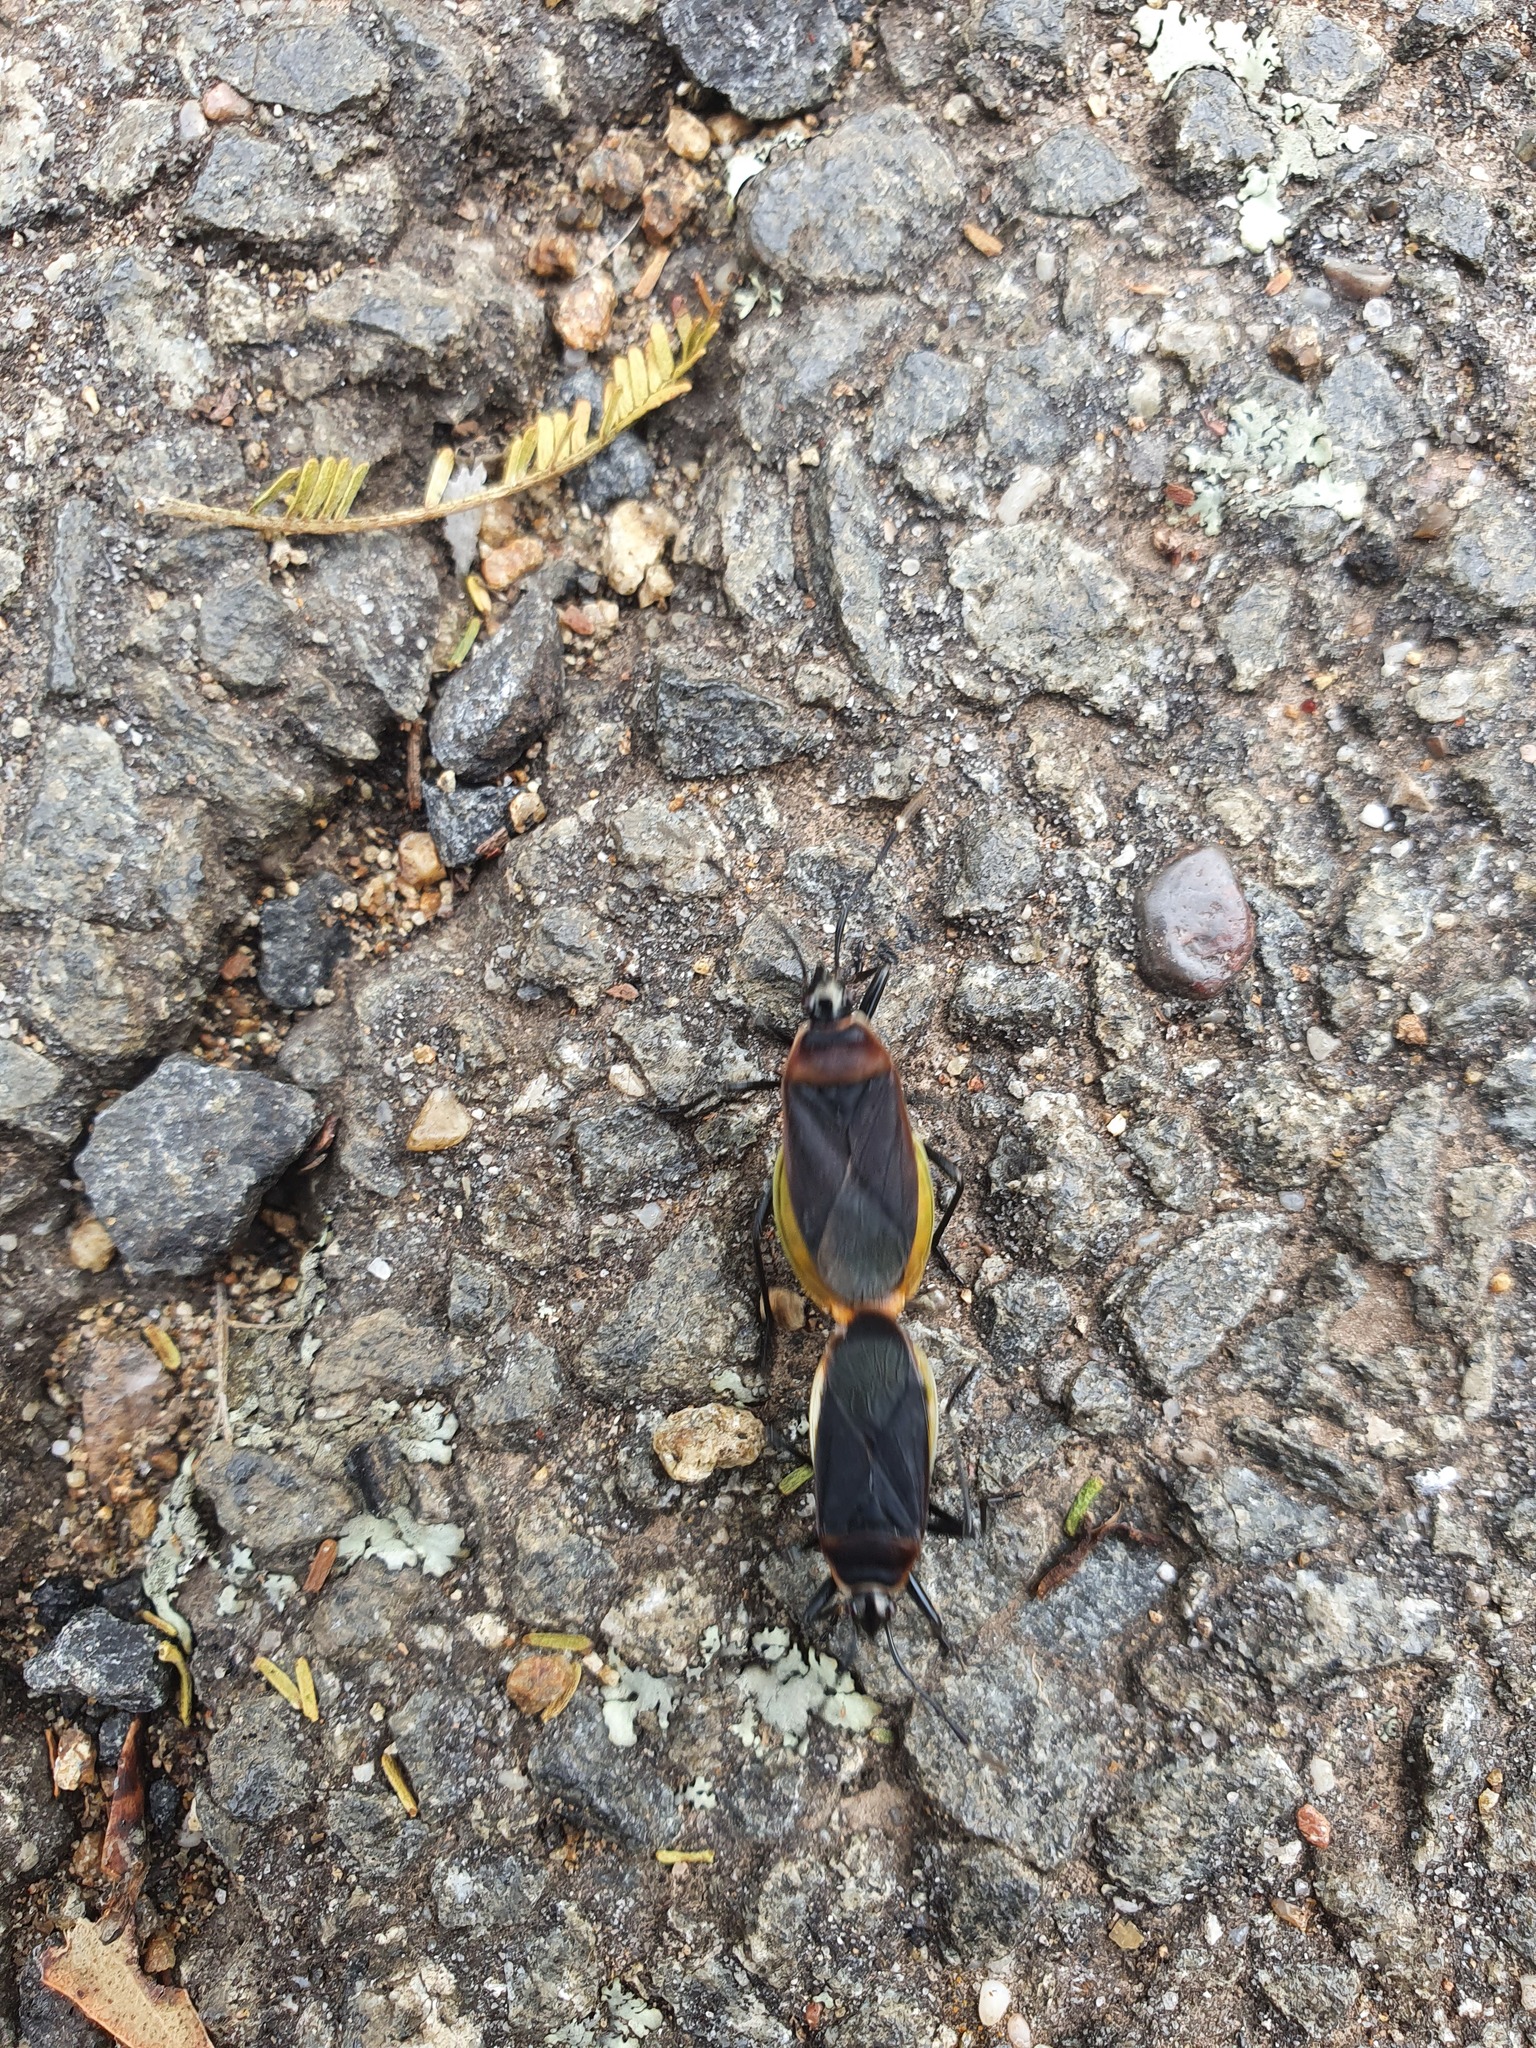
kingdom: Animalia
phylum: Arthropoda
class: Insecta
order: Hemiptera
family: Pyrrhocoridae
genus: Dindymus
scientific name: Dindymus
